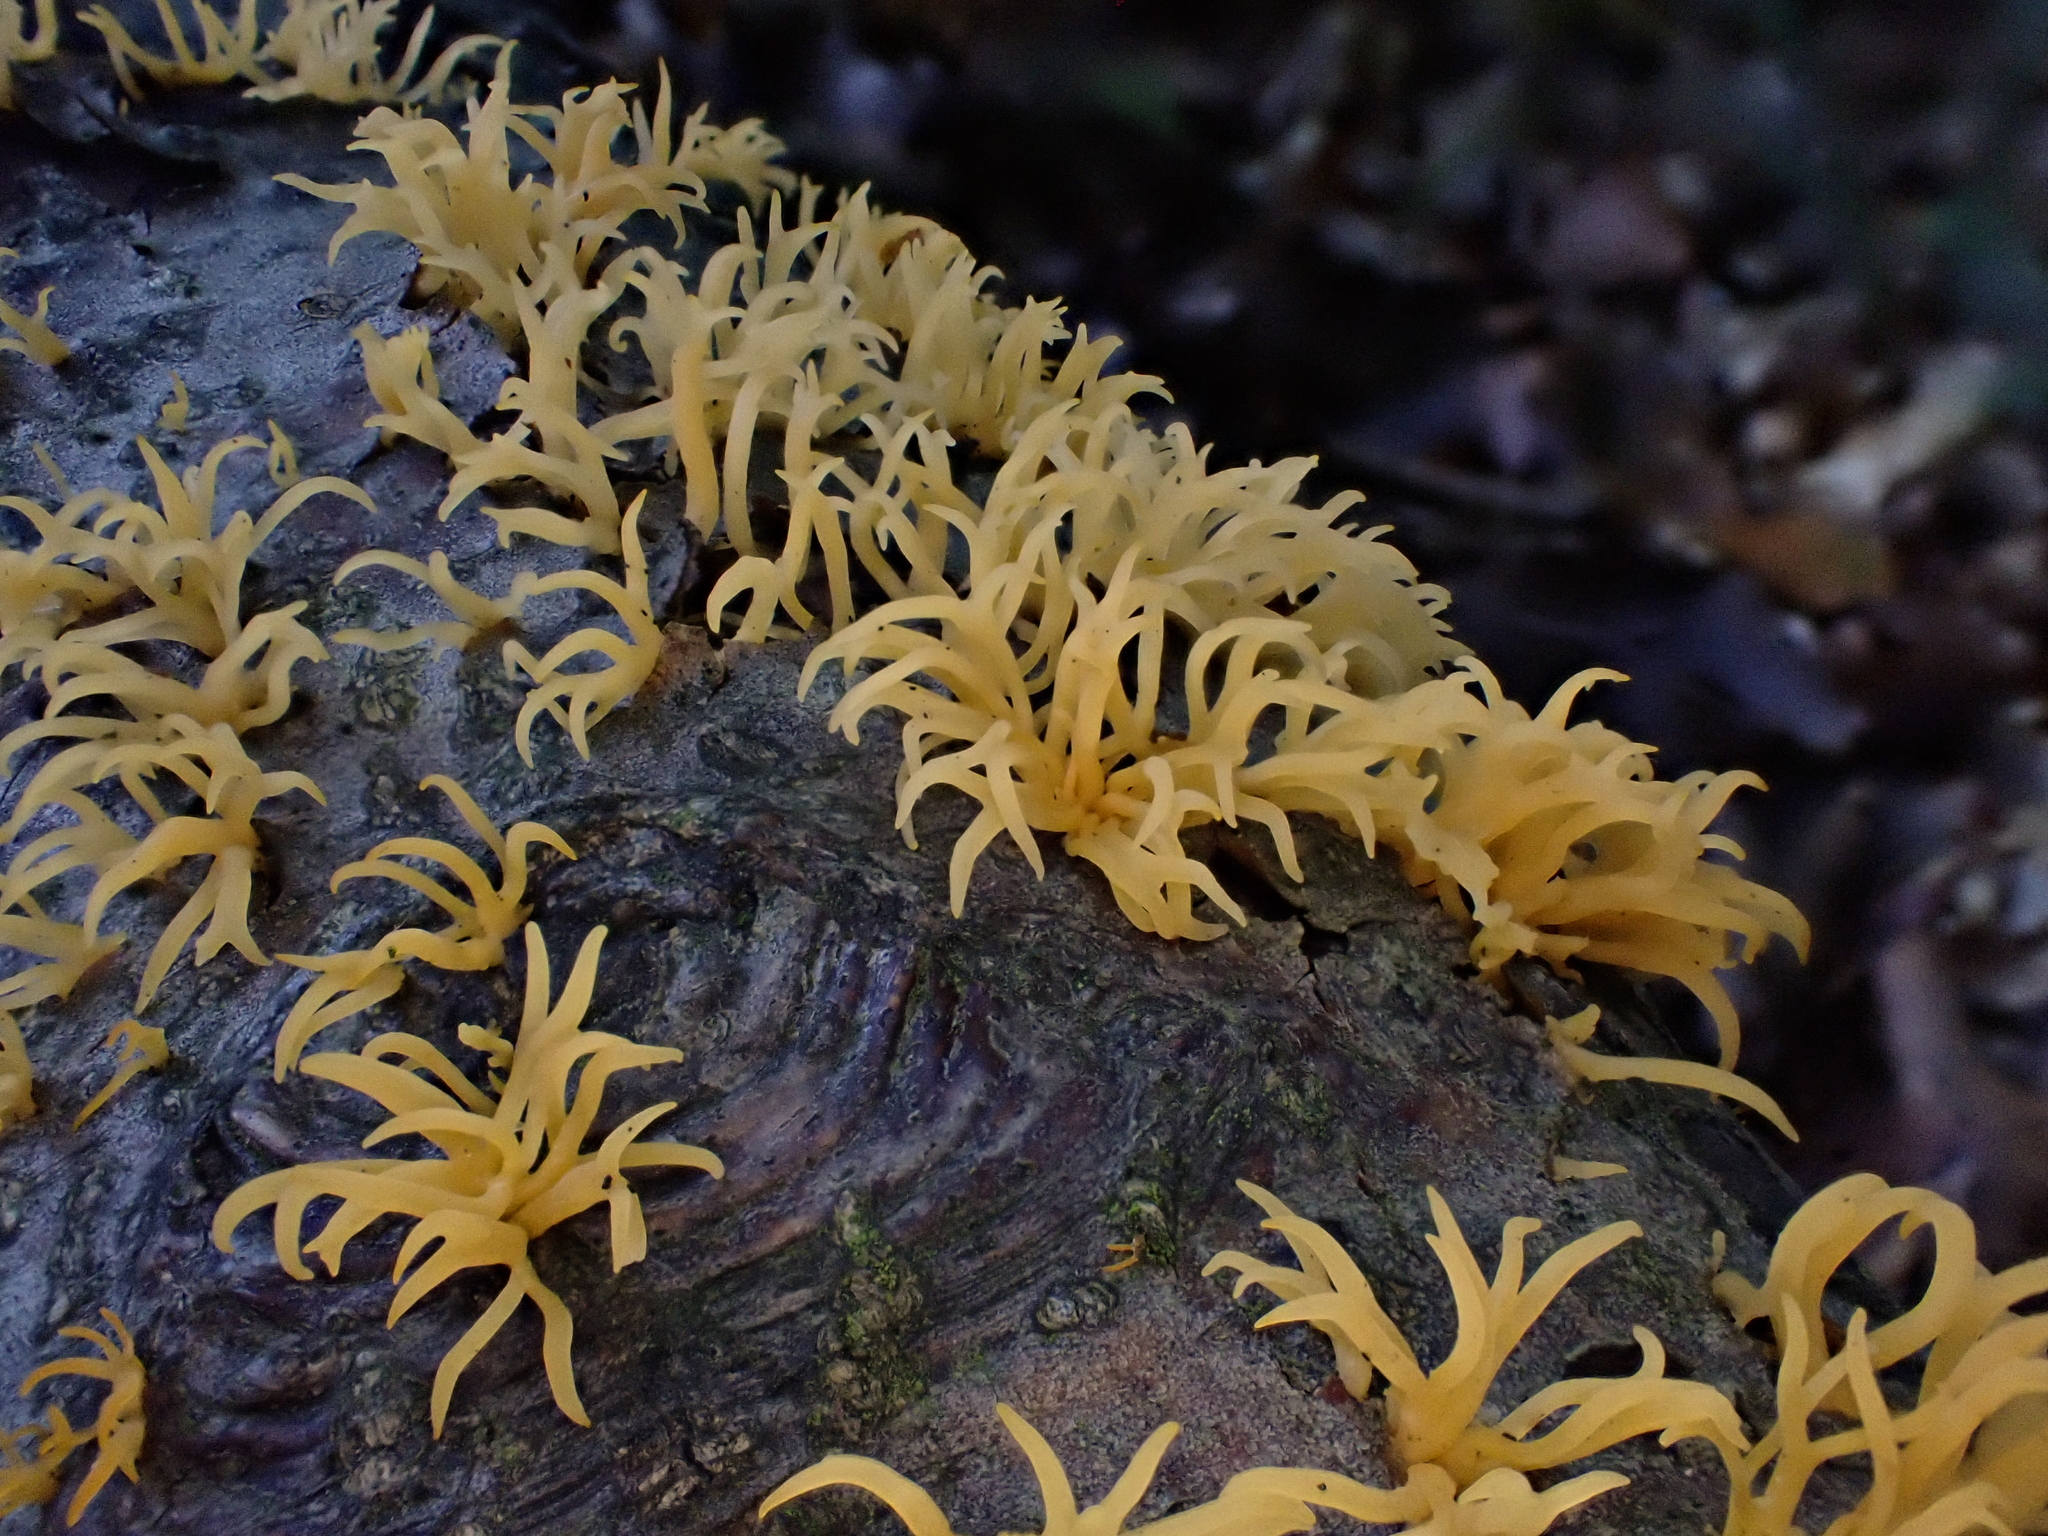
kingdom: Fungi
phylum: Basidiomycota
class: Dacrymycetes
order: Dacrymycetales
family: Dacrymycetaceae
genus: Calocera
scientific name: Calocera furcata
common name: Forked stagshorn
